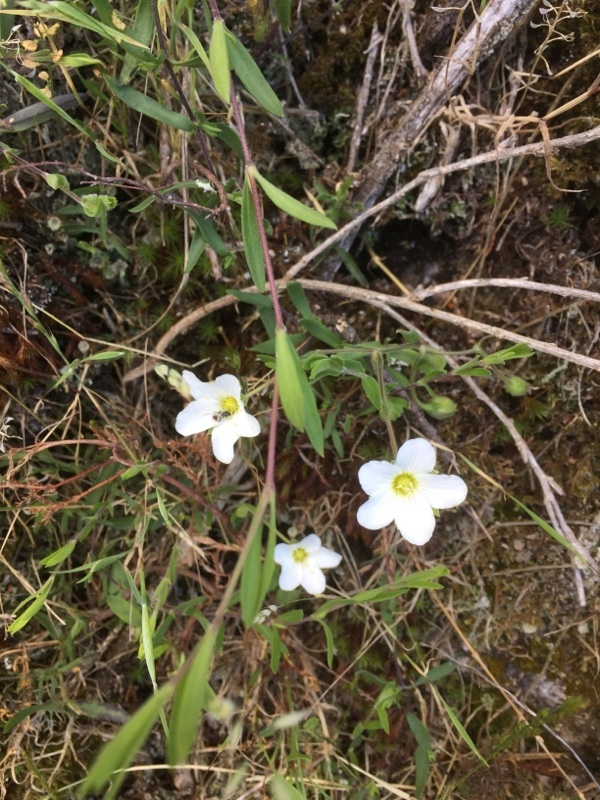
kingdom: Plantae
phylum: Tracheophyta
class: Magnoliopsida
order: Caryophyllales
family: Caryophyllaceae
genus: Arenaria
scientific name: Arenaria montana
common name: Mountain sandwort
